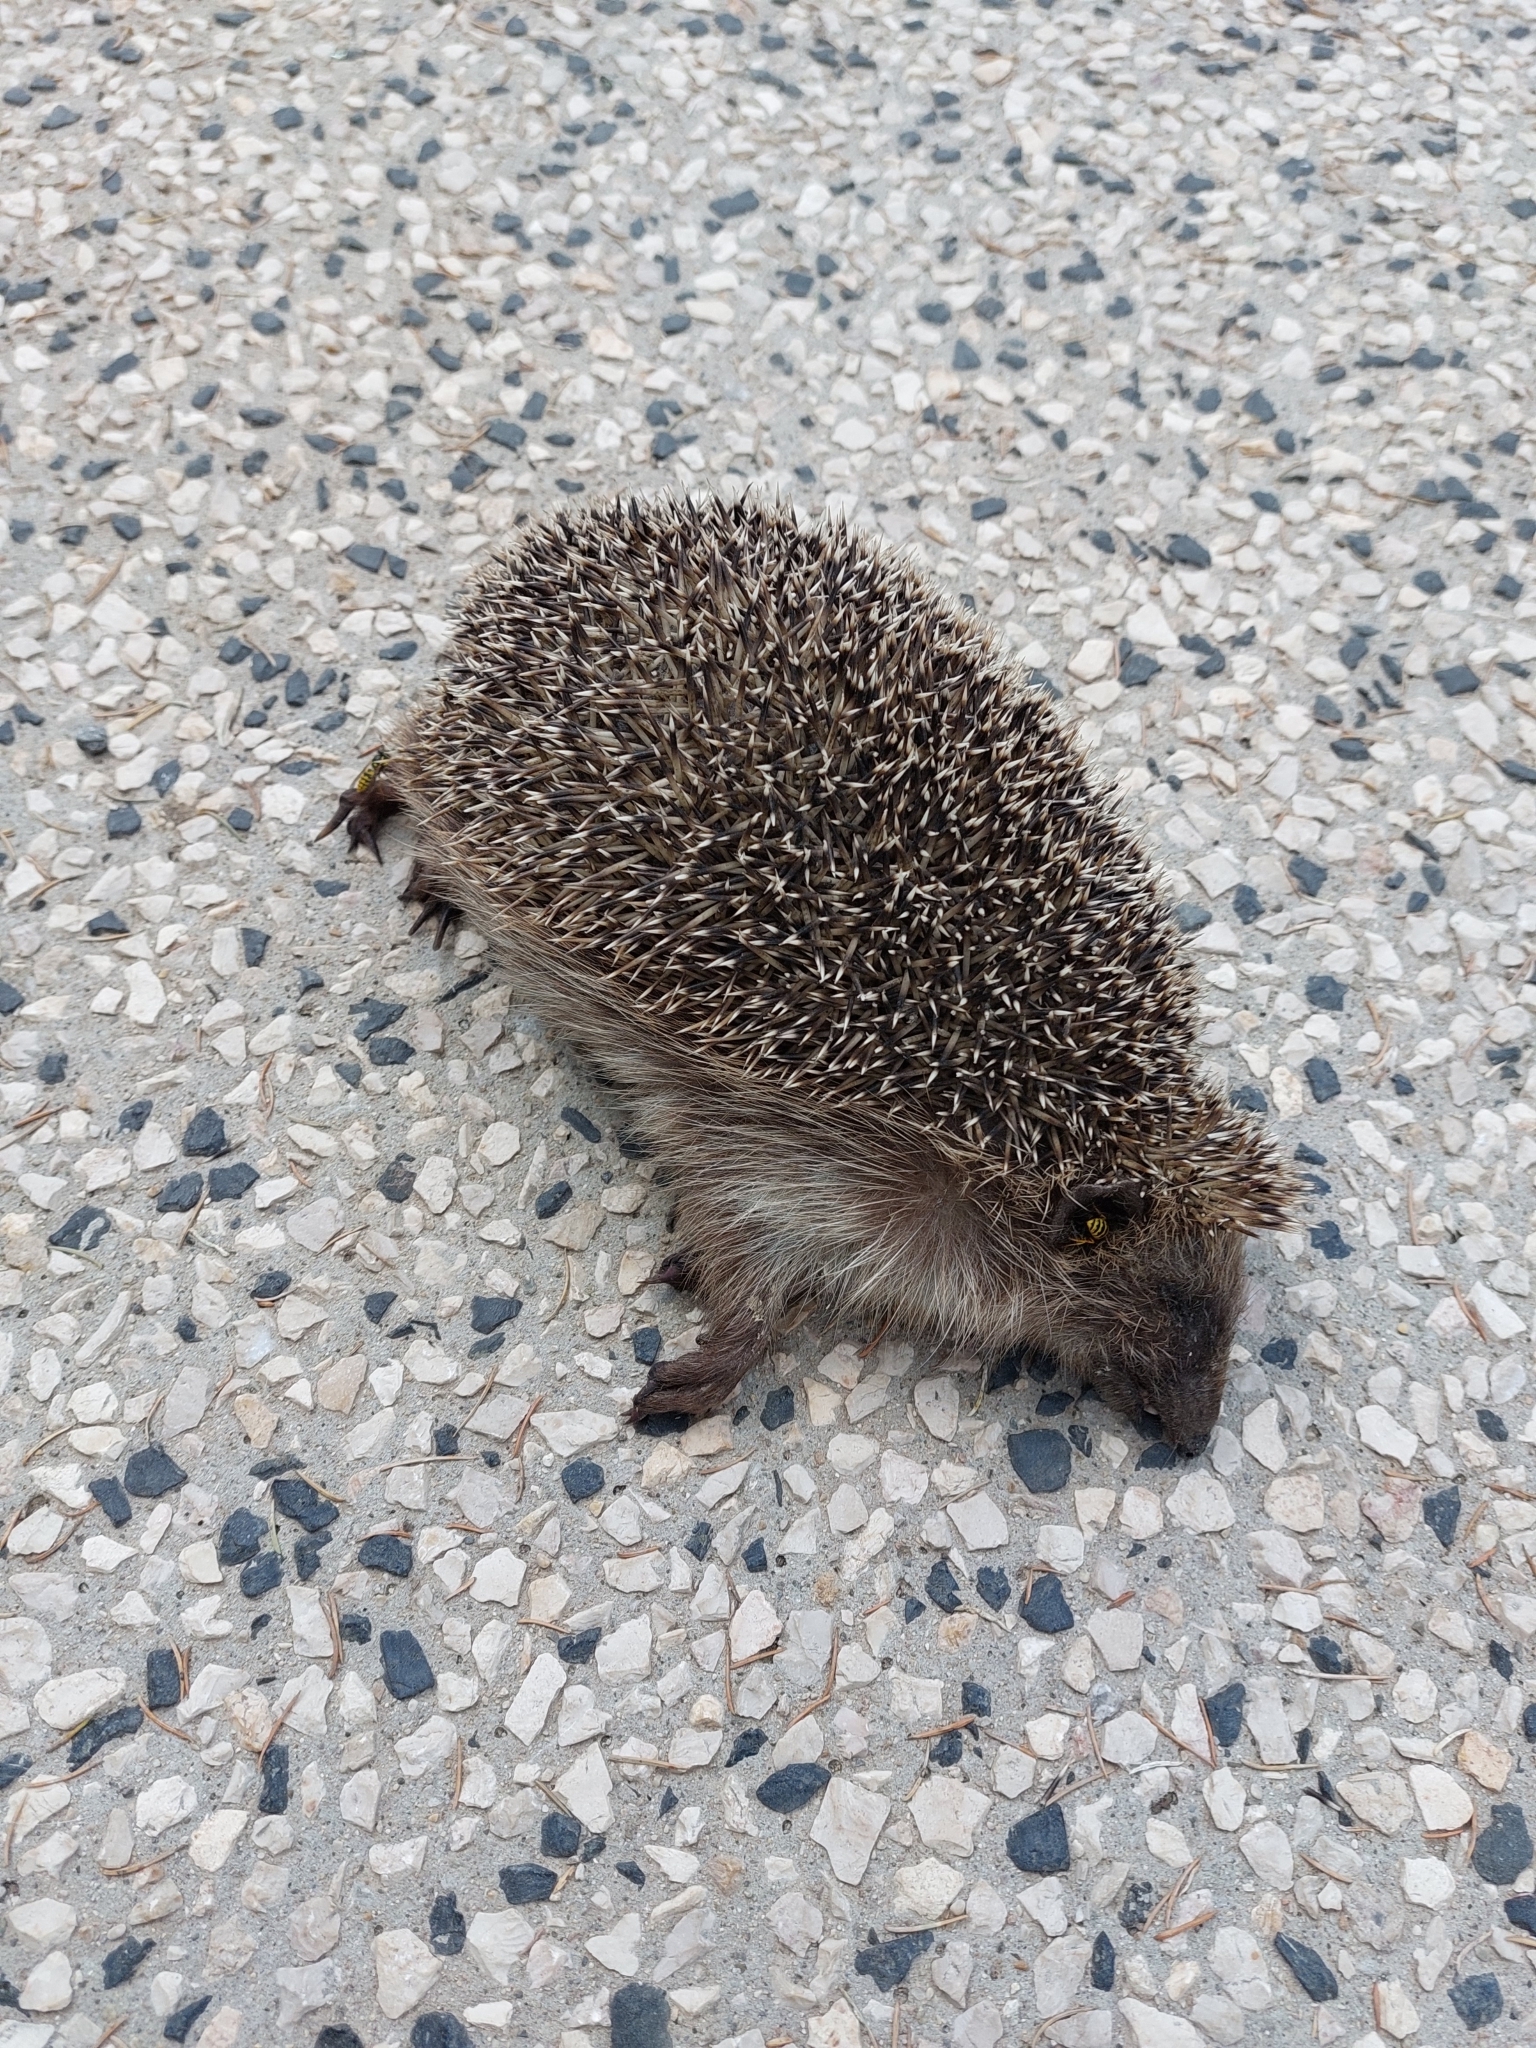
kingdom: Animalia
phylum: Chordata
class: Mammalia
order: Erinaceomorpha
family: Erinaceidae
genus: Erinaceus
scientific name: Erinaceus europaeus
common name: West european hedgehog
